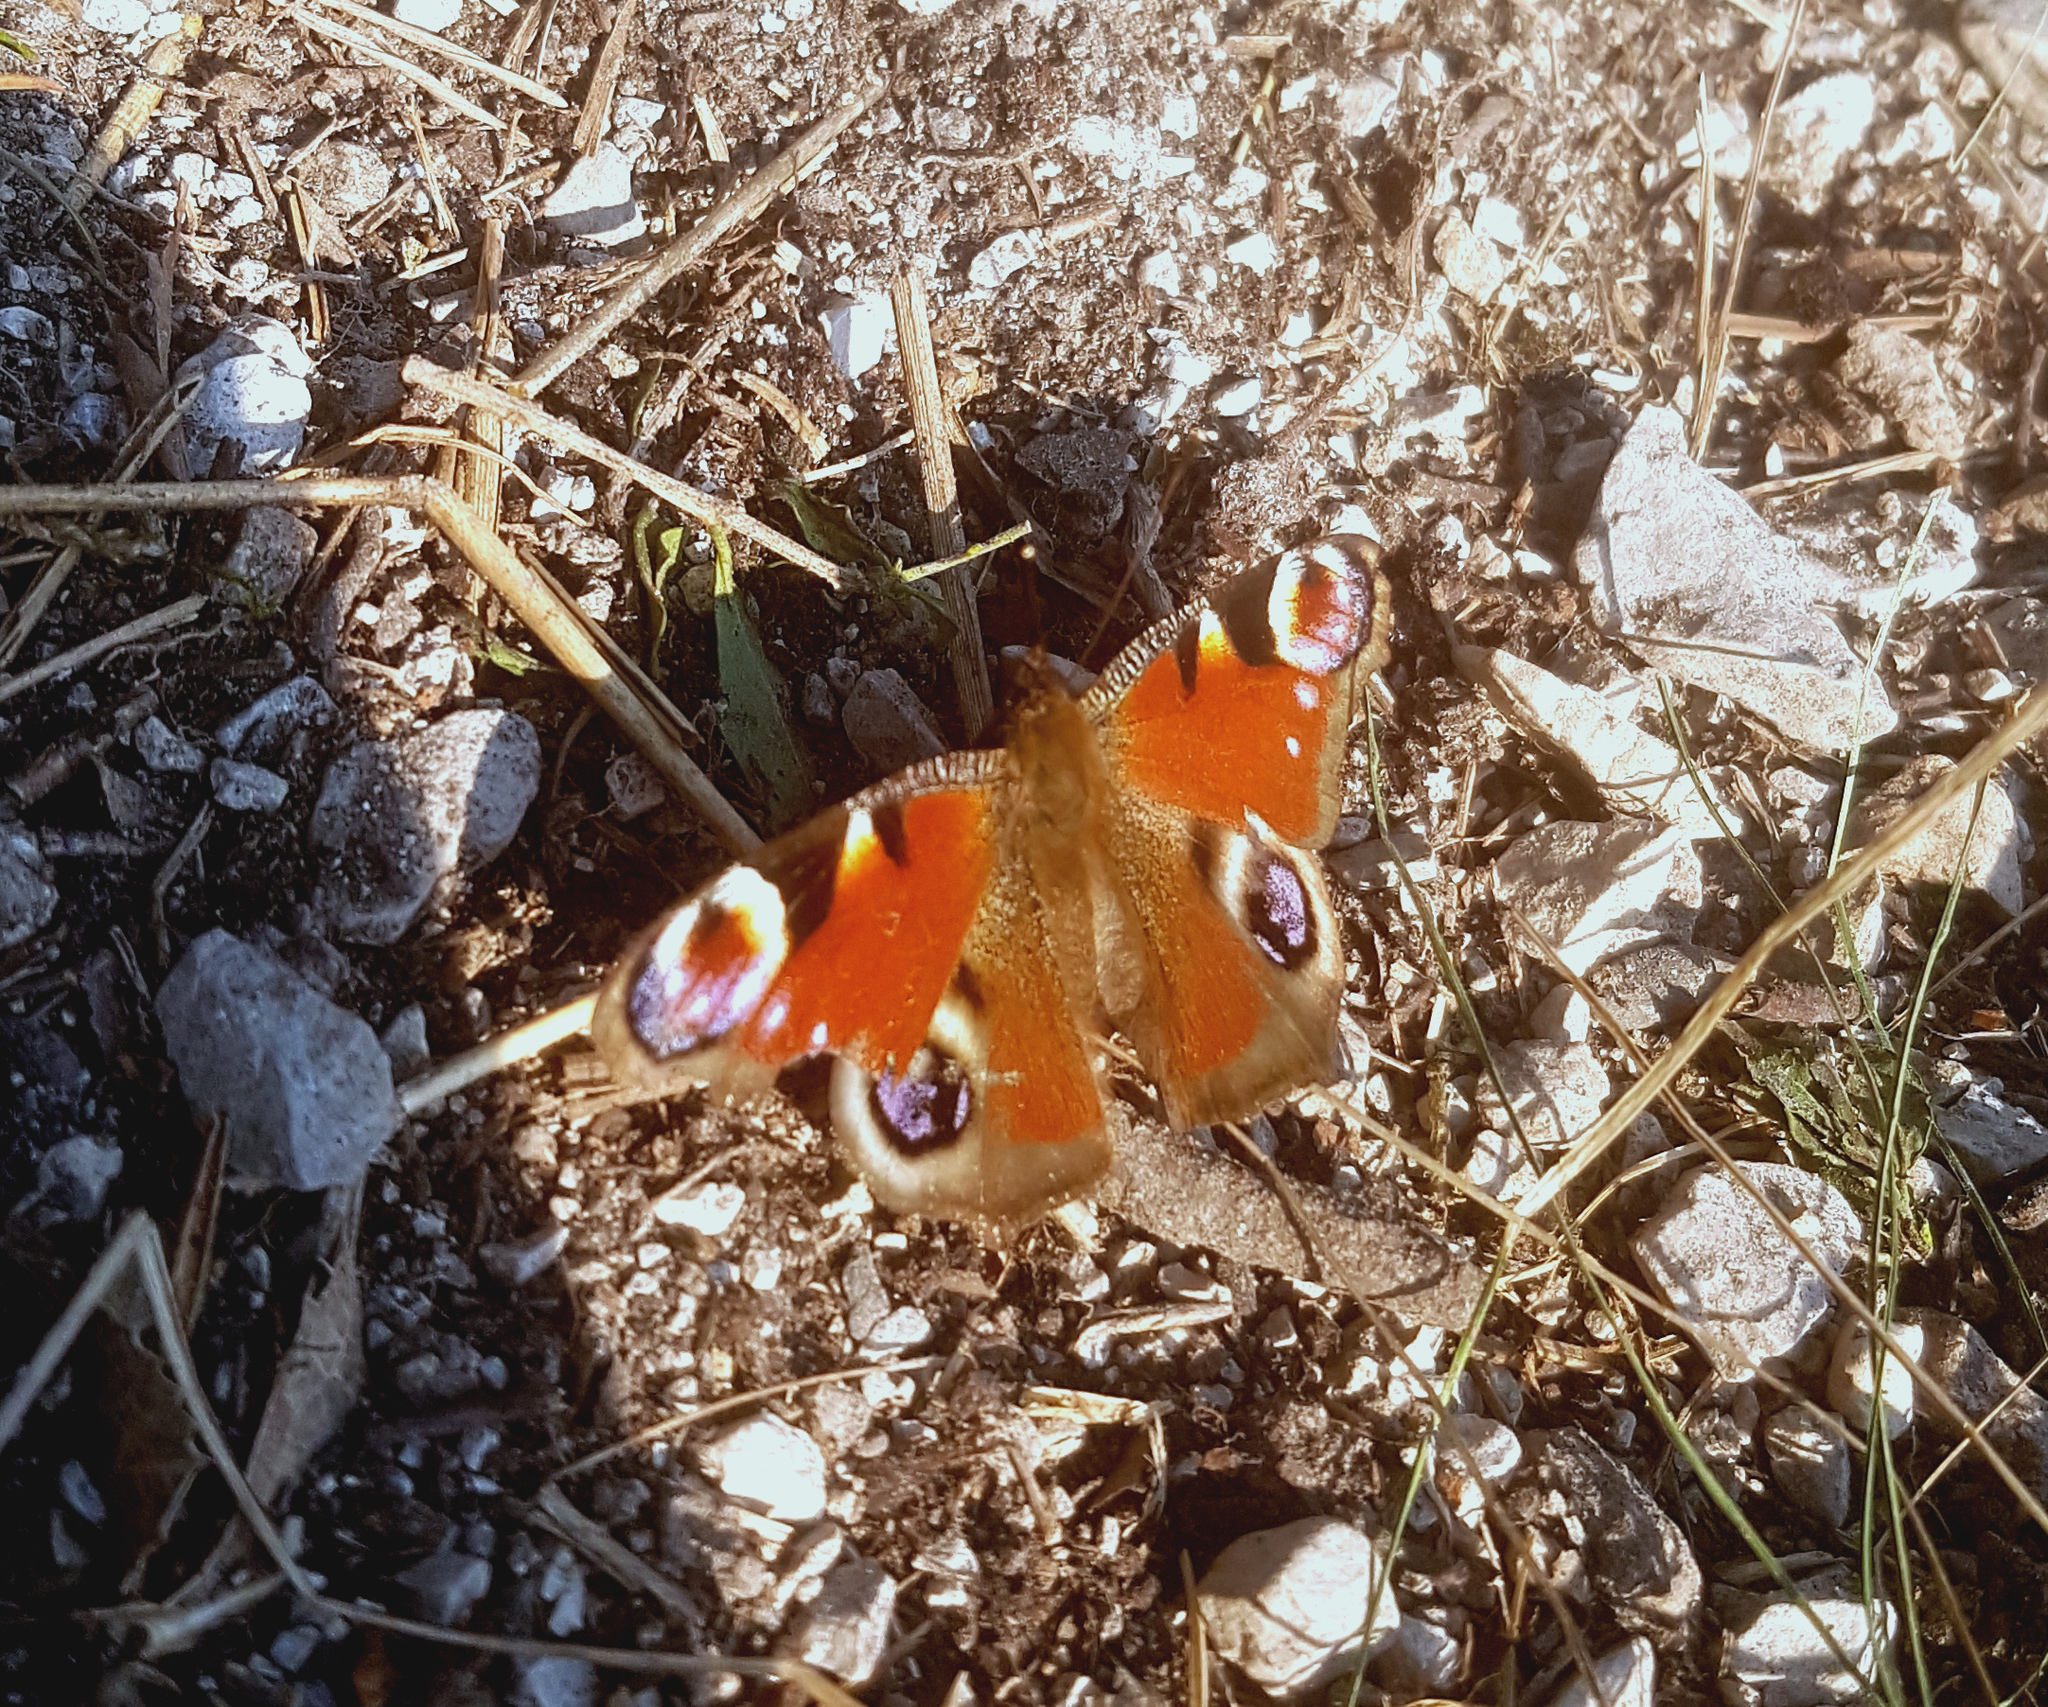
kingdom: Animalia
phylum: Arthropoda
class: Insecta
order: Lepidoptera
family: Nymphalidae
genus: Aglais
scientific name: Aglais io
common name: Peacock
